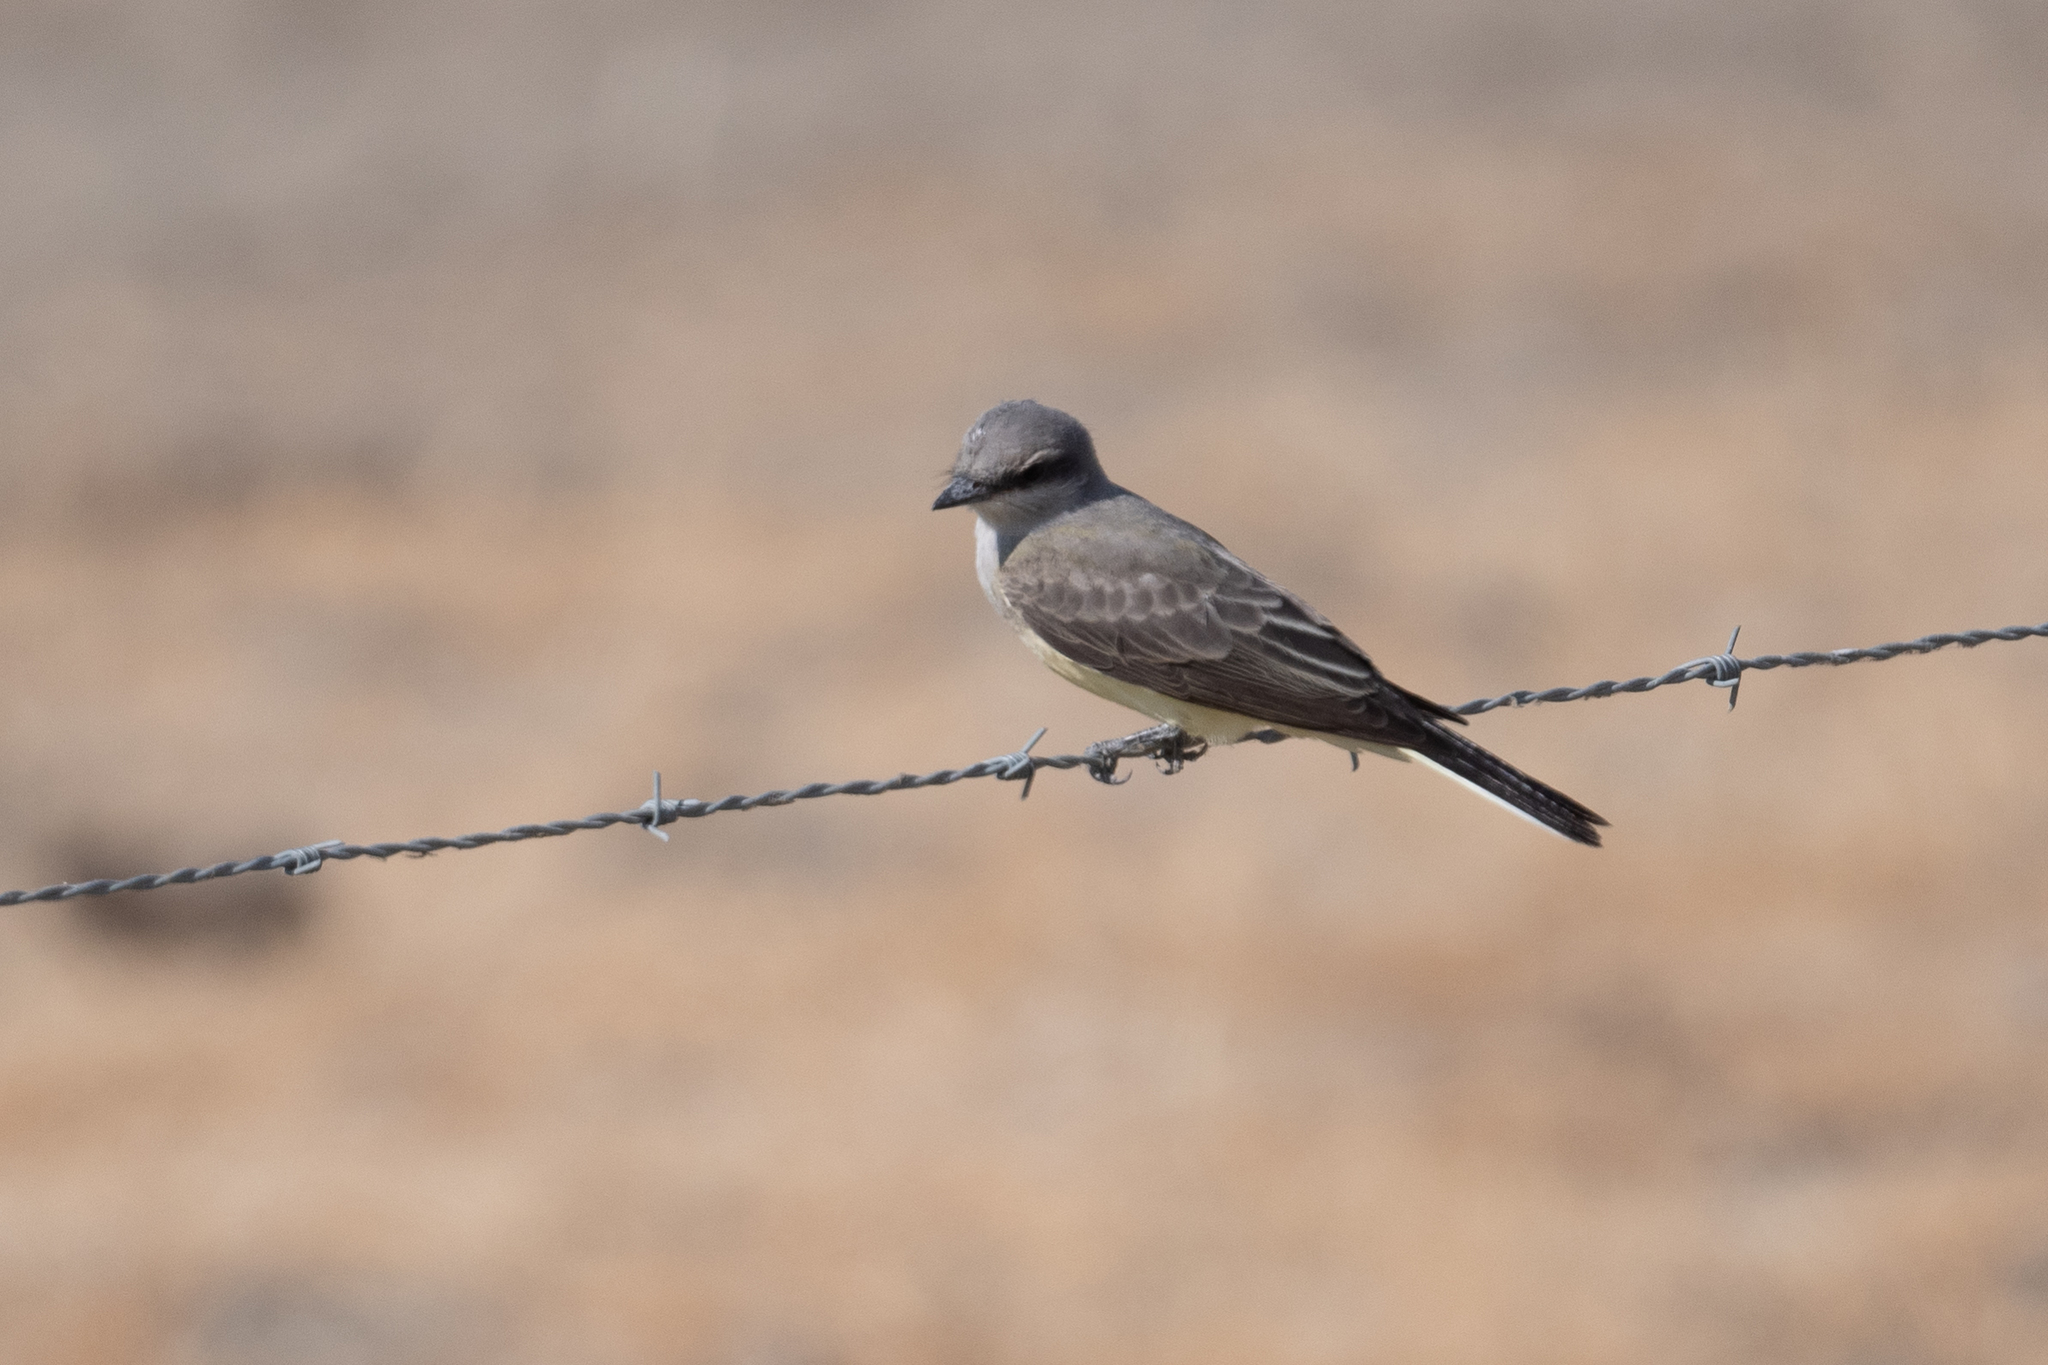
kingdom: Animalia
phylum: Chordata
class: Aves
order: Passeriformes
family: Tyrannidae
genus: Tyrannus
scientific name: Tyrannus verticalis
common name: Western kingbird
